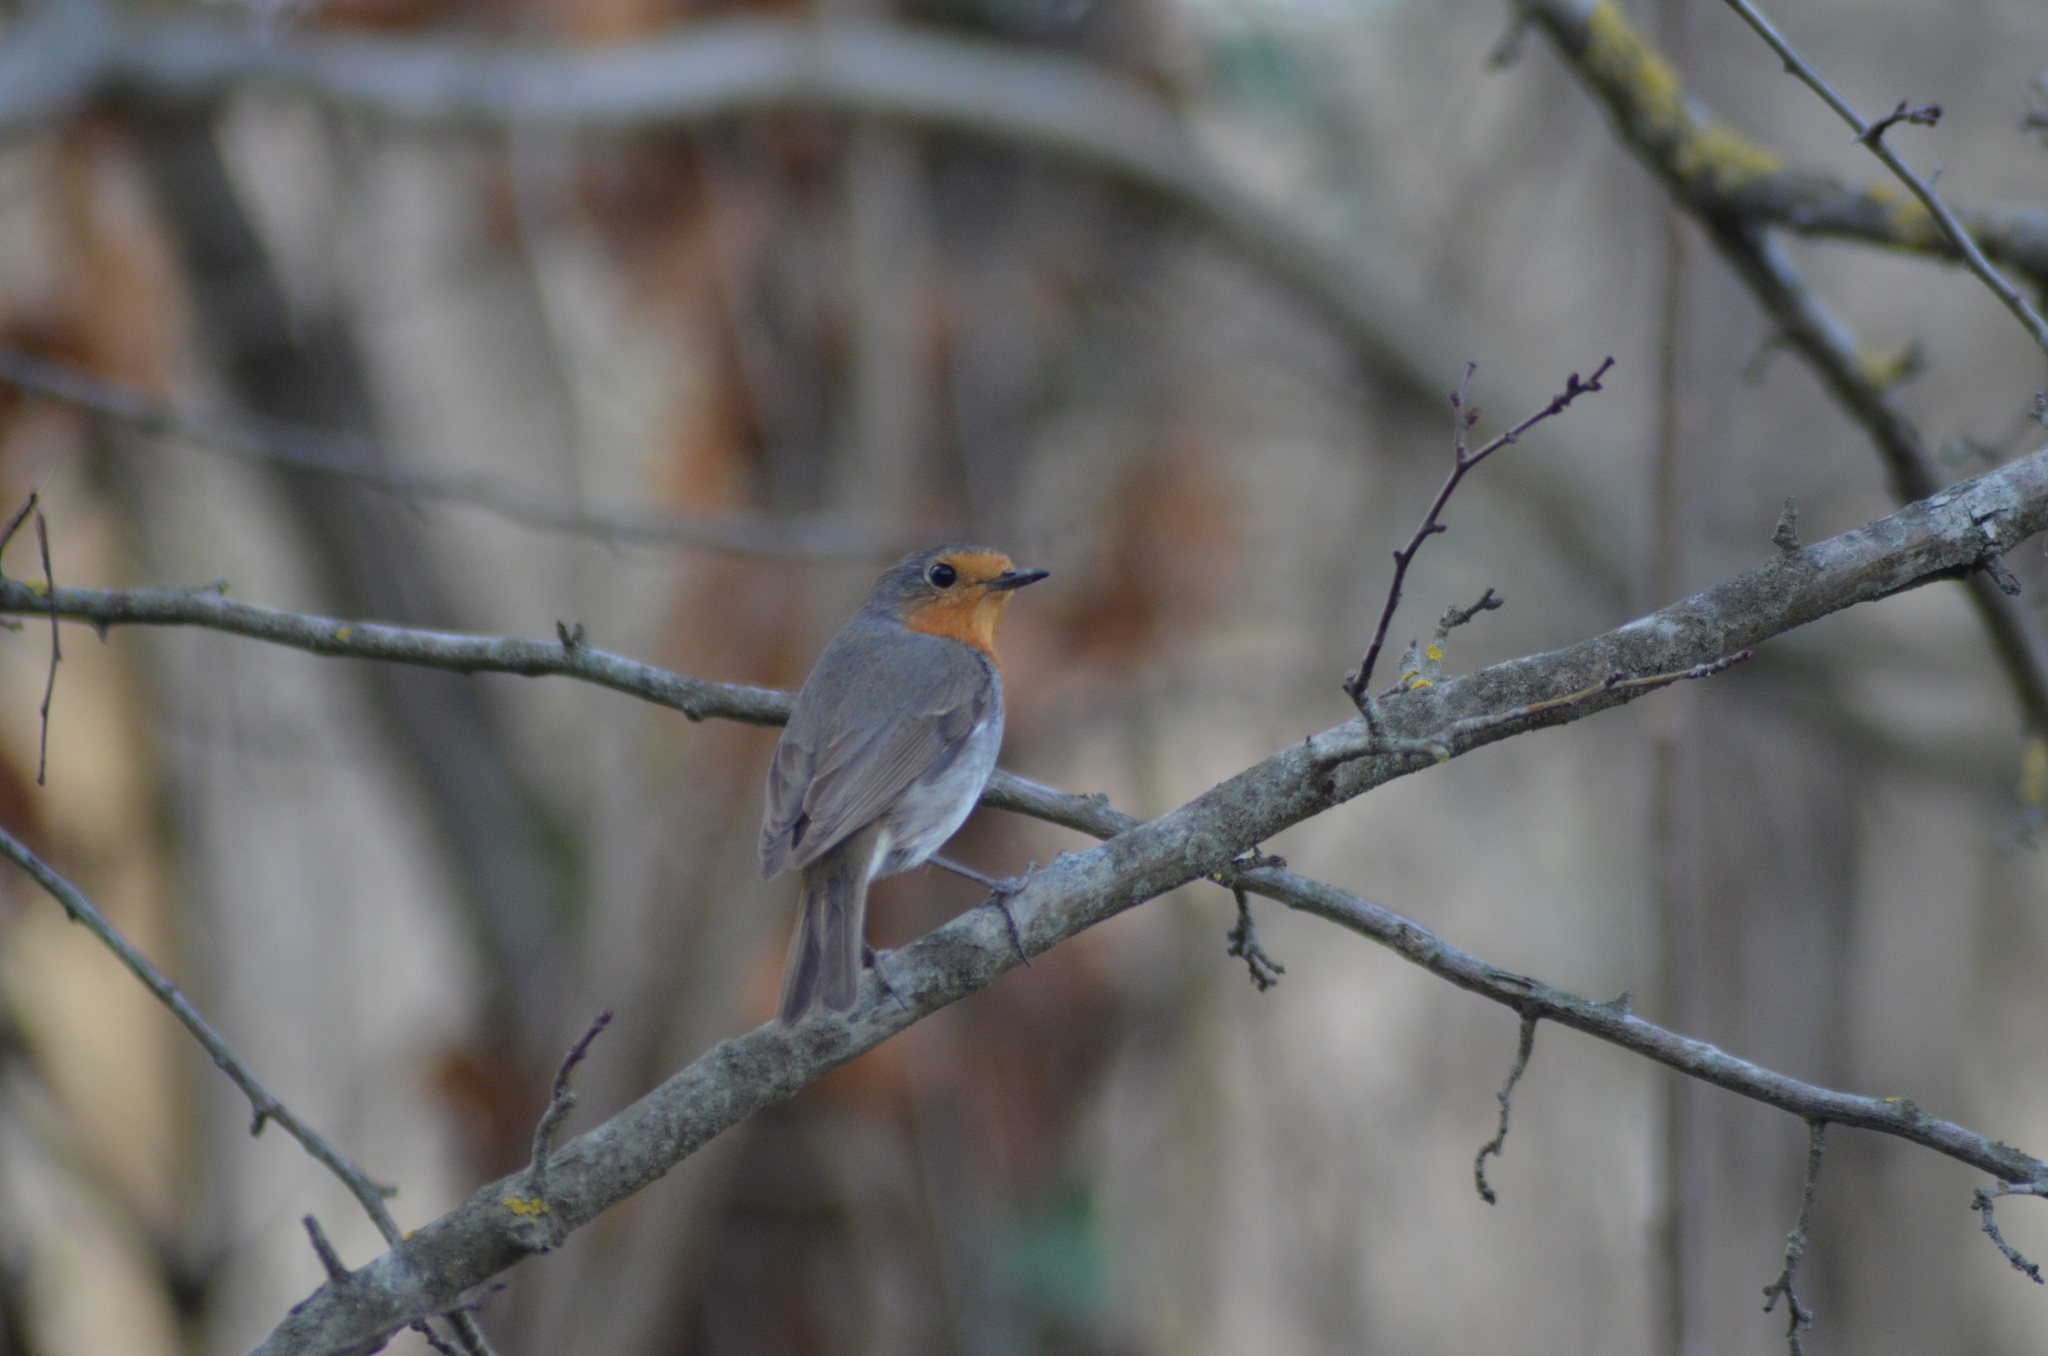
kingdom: Animalia
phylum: Chordata
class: Aves
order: Passeriformes
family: Muscicapidae
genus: Erithacus
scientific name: Erithacus rubecula
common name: European robin
